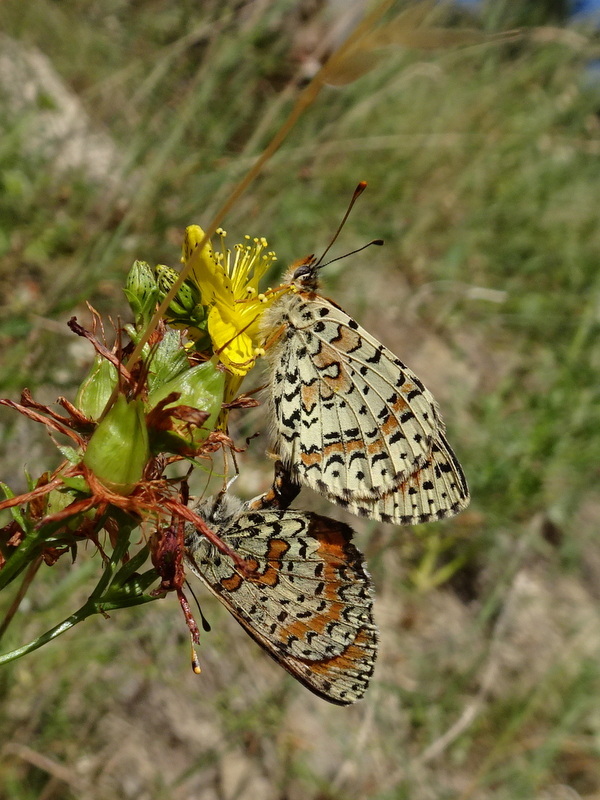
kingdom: Animalia
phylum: Arthropoda
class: Insecta
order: Lepidoptera
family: Nymphalidae
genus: Melitaea
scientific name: Melitaea didyma
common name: Spotted fritillary
